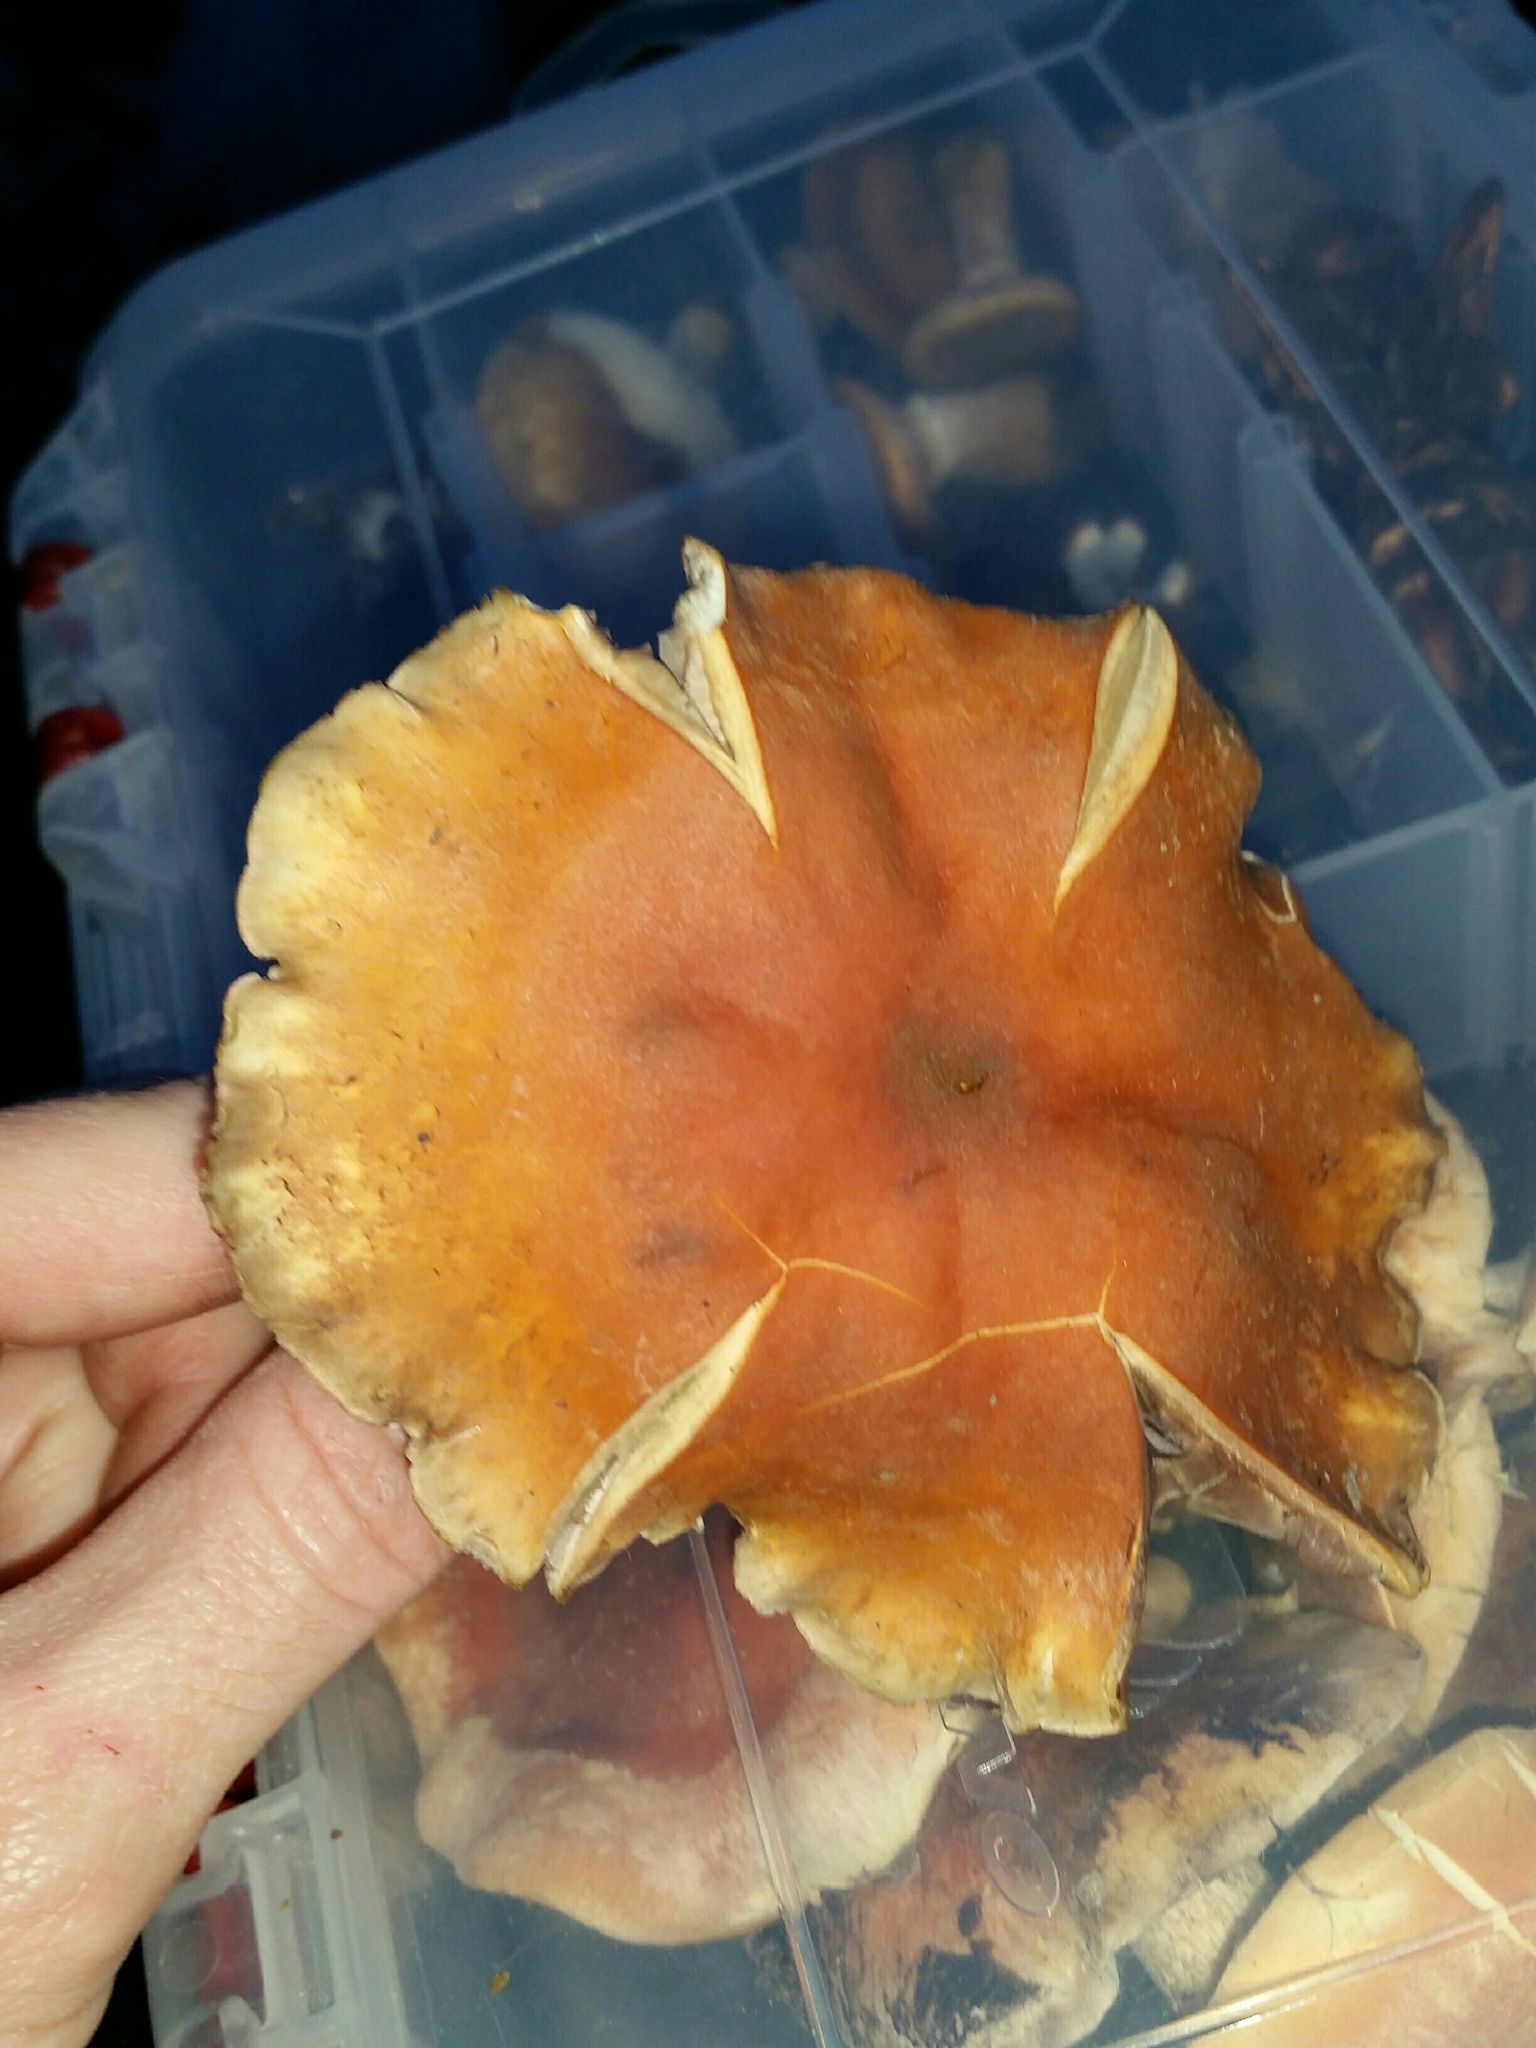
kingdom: Fungi
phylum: Basidiomycota
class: Agaricomycetes
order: Agaricales
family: Strophariaceae
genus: Hypholoma
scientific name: Hypholoma lateritium
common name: Brick caps
